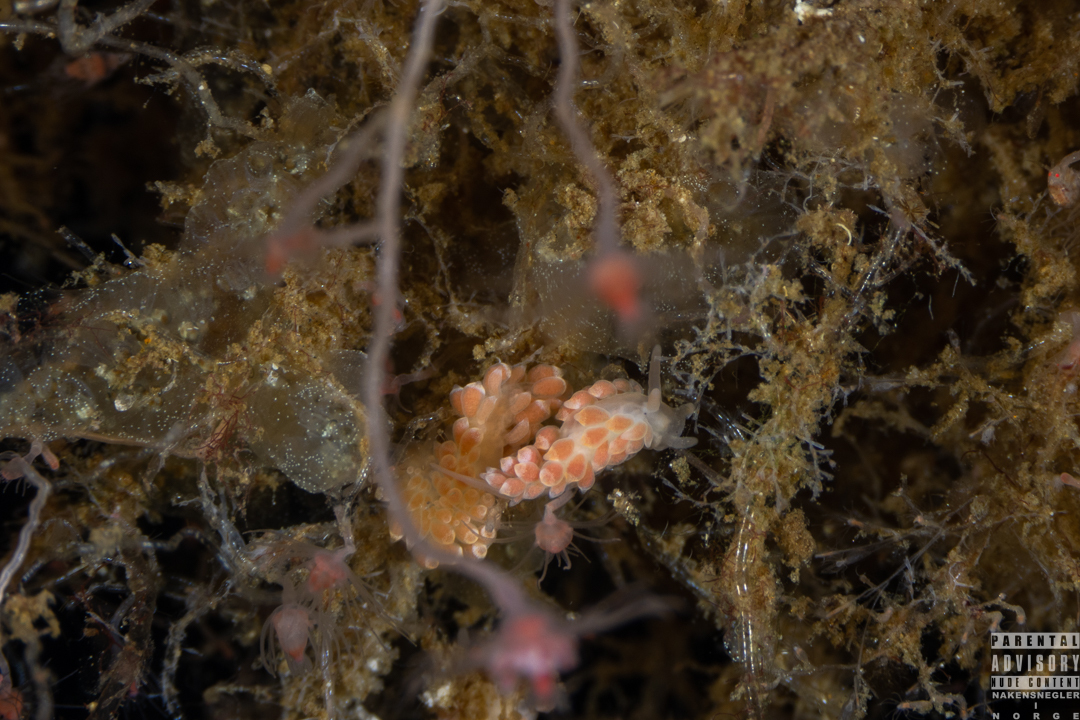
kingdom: Animalia
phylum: Mollusca
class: Gastropoda
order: Nudibranchia
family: Trinchesiidae
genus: Catriona
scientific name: Catriona aurantia
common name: Corange-tip cuthona
